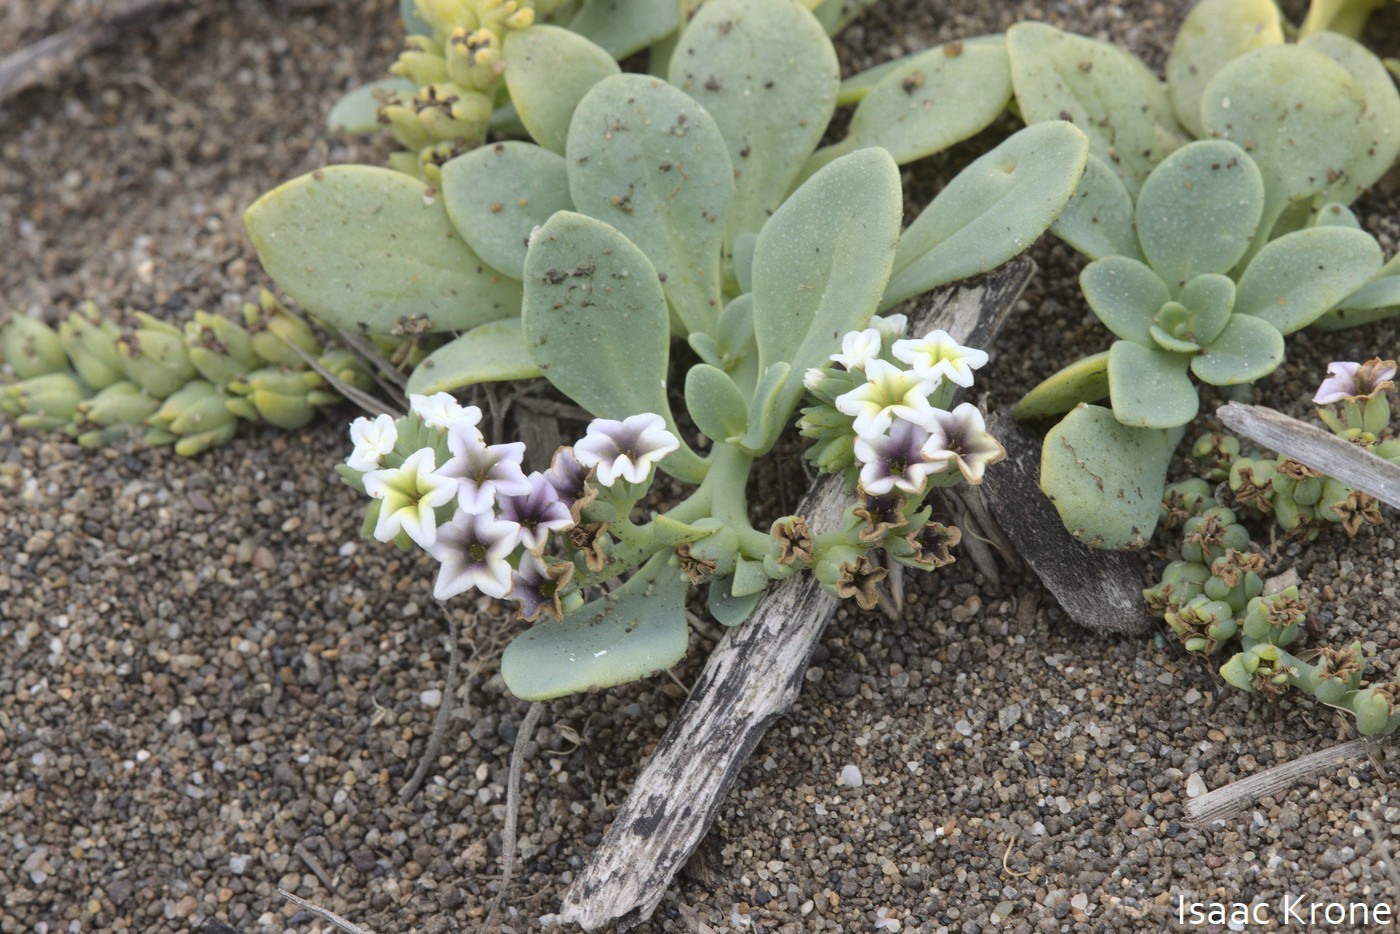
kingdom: Plantae
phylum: Tracheophyta
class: Magnoliopsida
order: Boraginales
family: Heliotropiaceae
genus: Heliotropium
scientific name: Heliotropium curassavicum
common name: Seaside heliotrope
